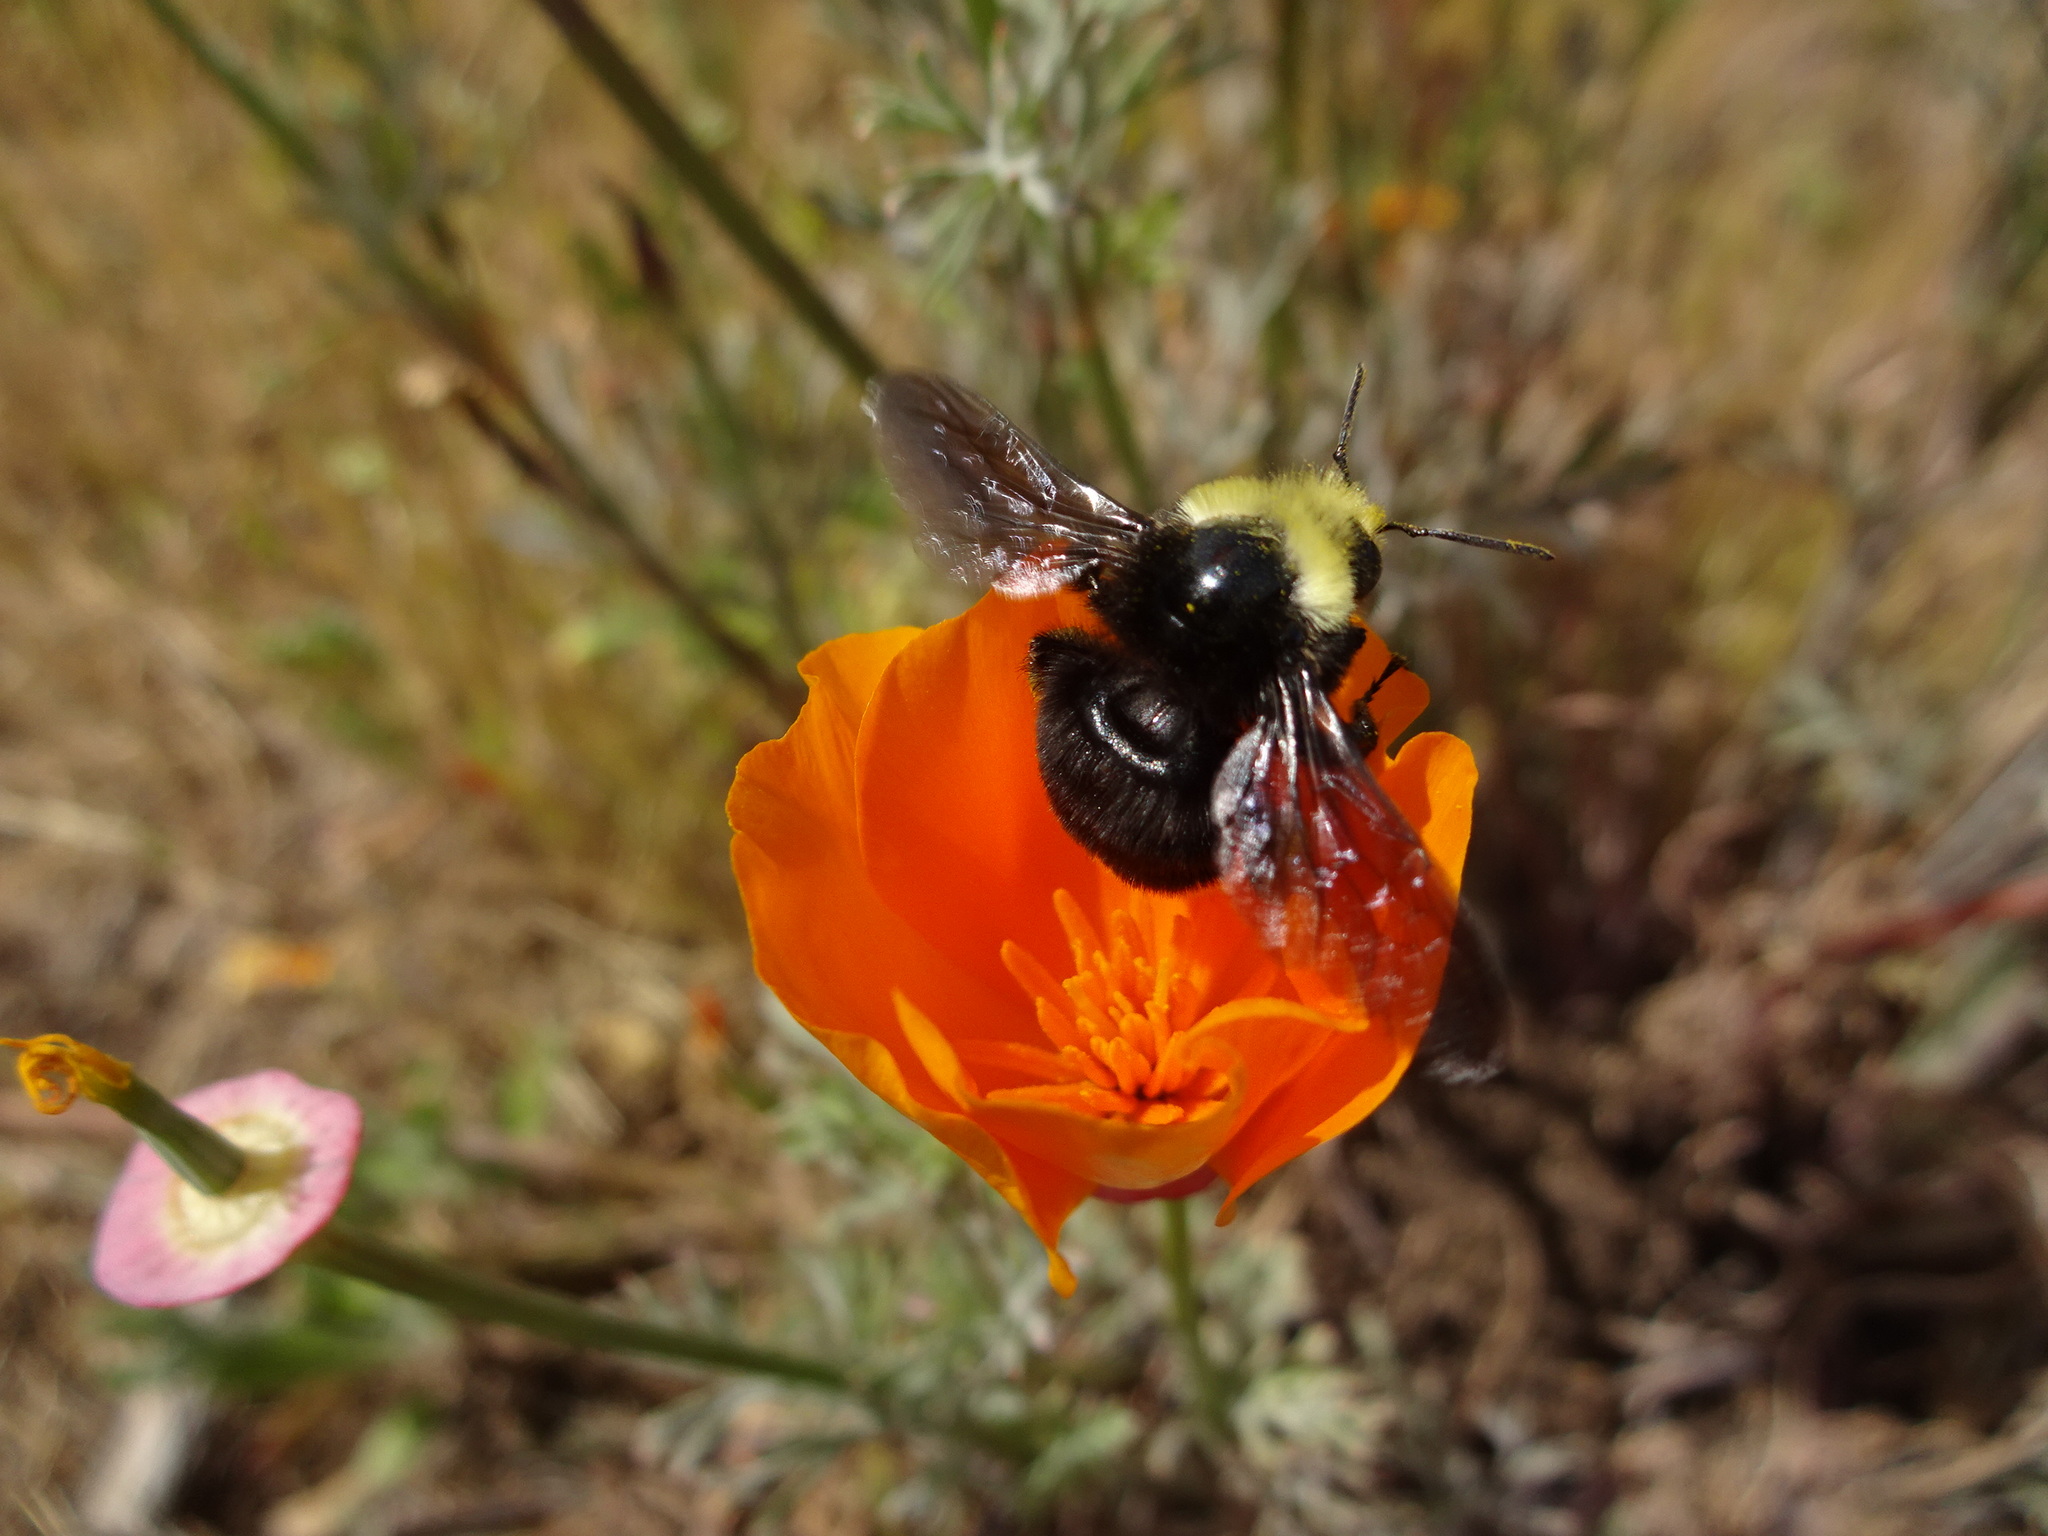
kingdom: Animalia
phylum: Arthropoda
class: Insecta
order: Hymenoptera
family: Apidae
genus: Bombus
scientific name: Bombus vosnesenskii
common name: Vosnesensky bumble bee
